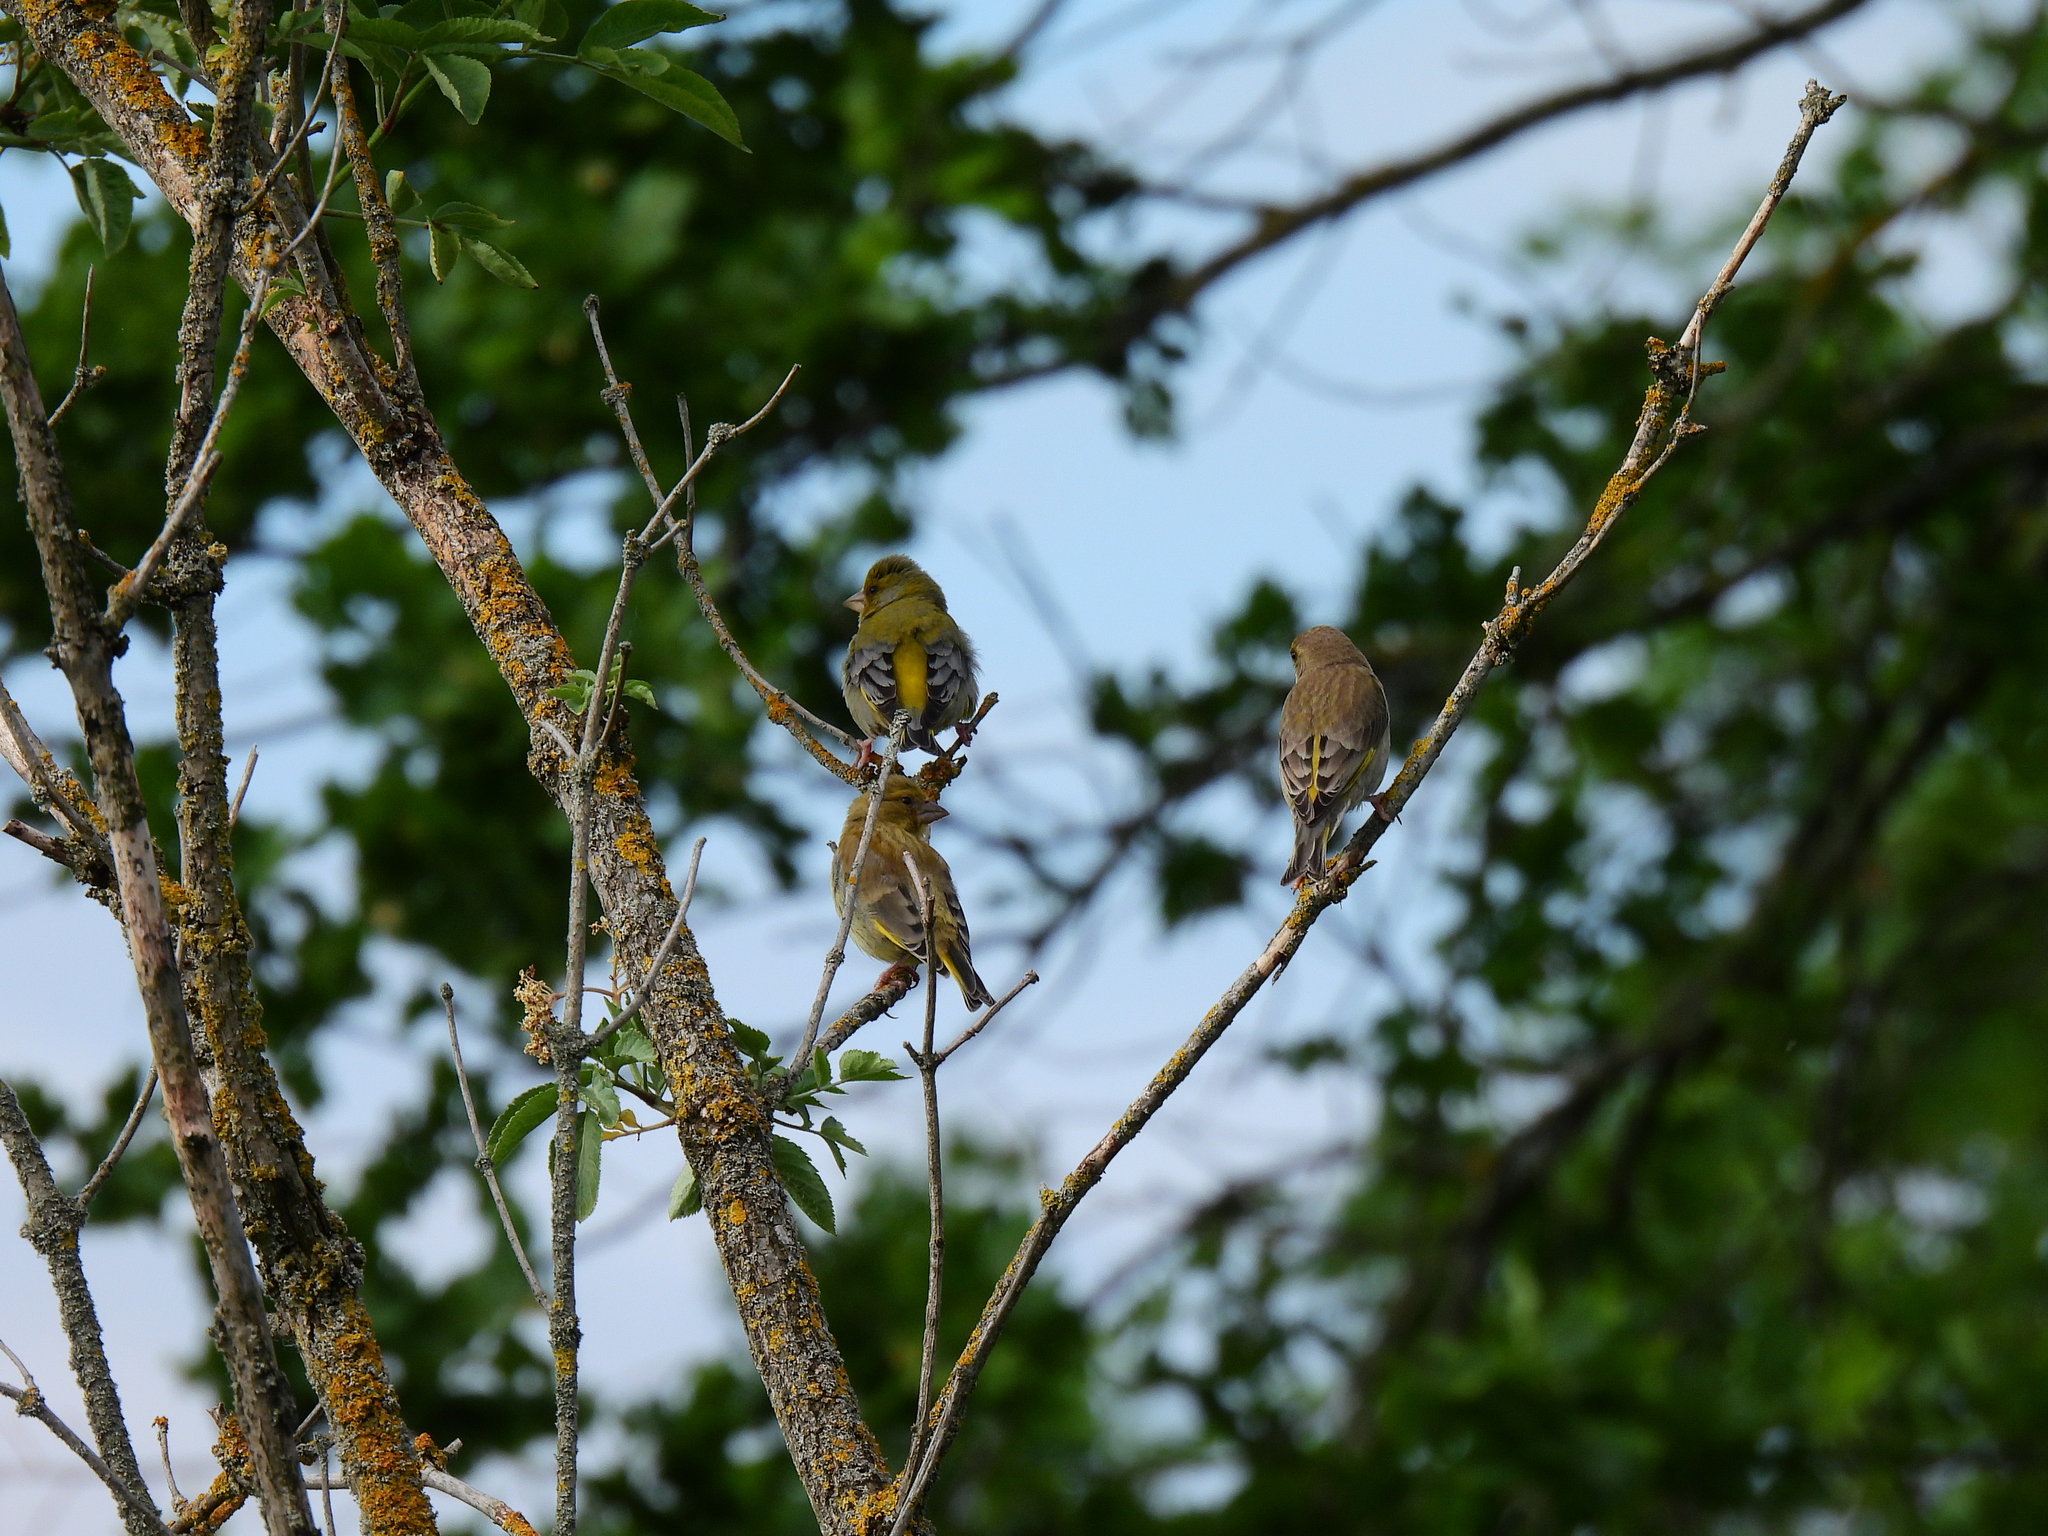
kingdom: Plantae
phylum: Tracheophyta
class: Liliopsida
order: Poales
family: Poaceae
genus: Chloris
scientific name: Chloris chloris
